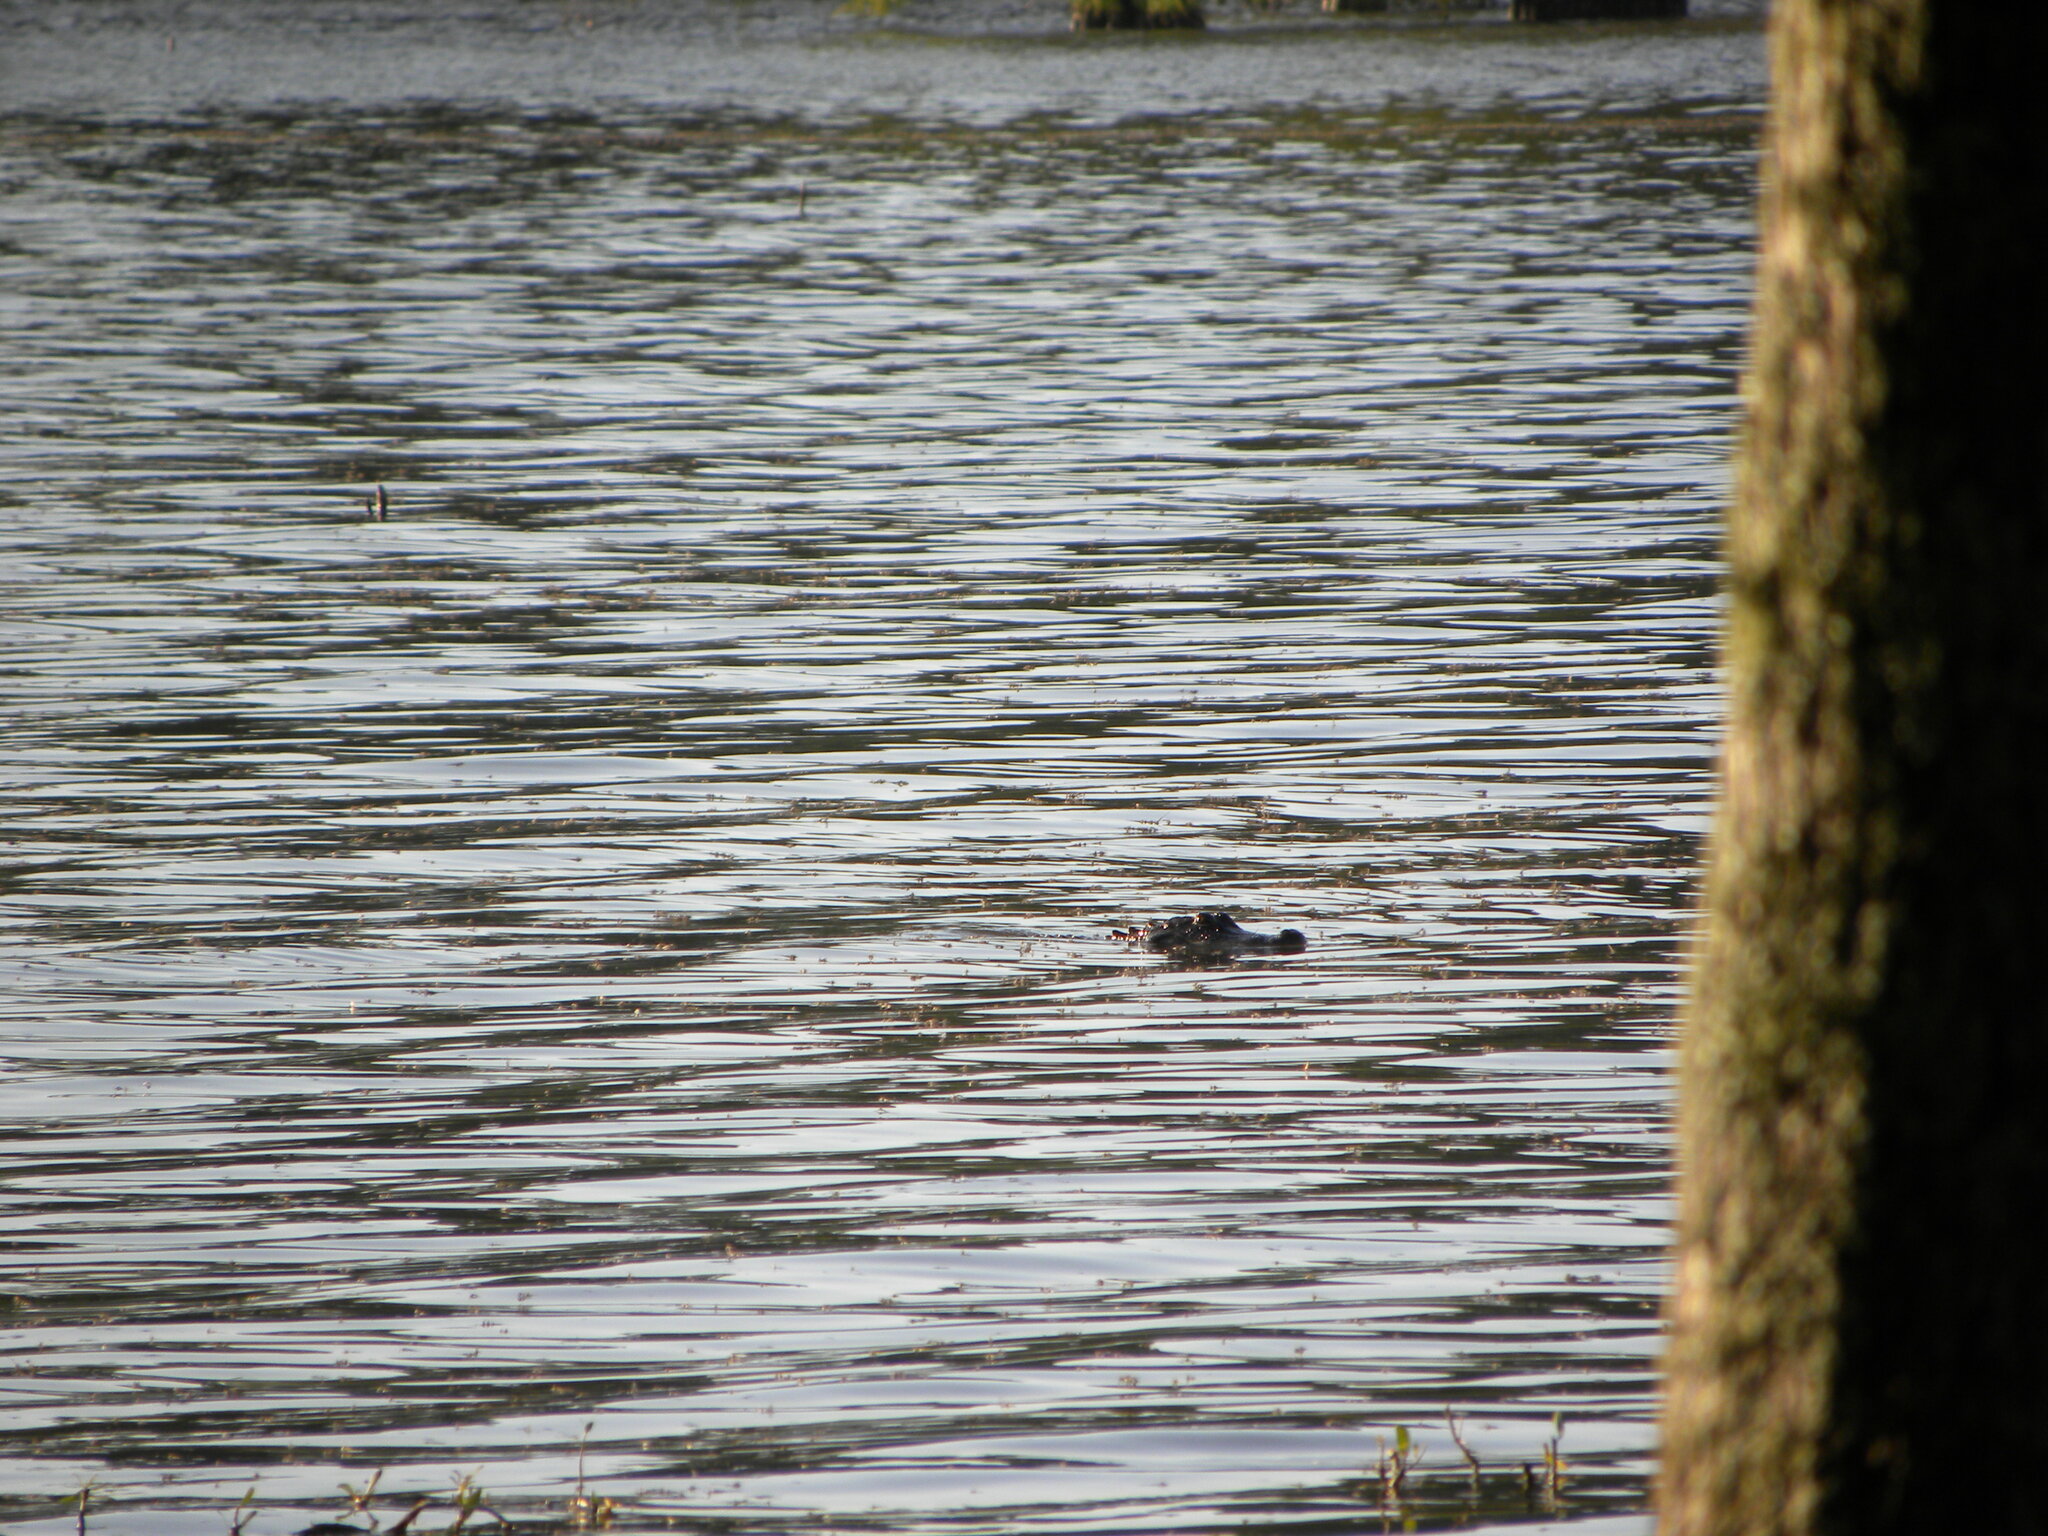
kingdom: Animalia
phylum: Chordata
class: Crocodylia
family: Alligatoridae
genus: Alligator
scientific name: Alligator mississippiensis
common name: American alligator
